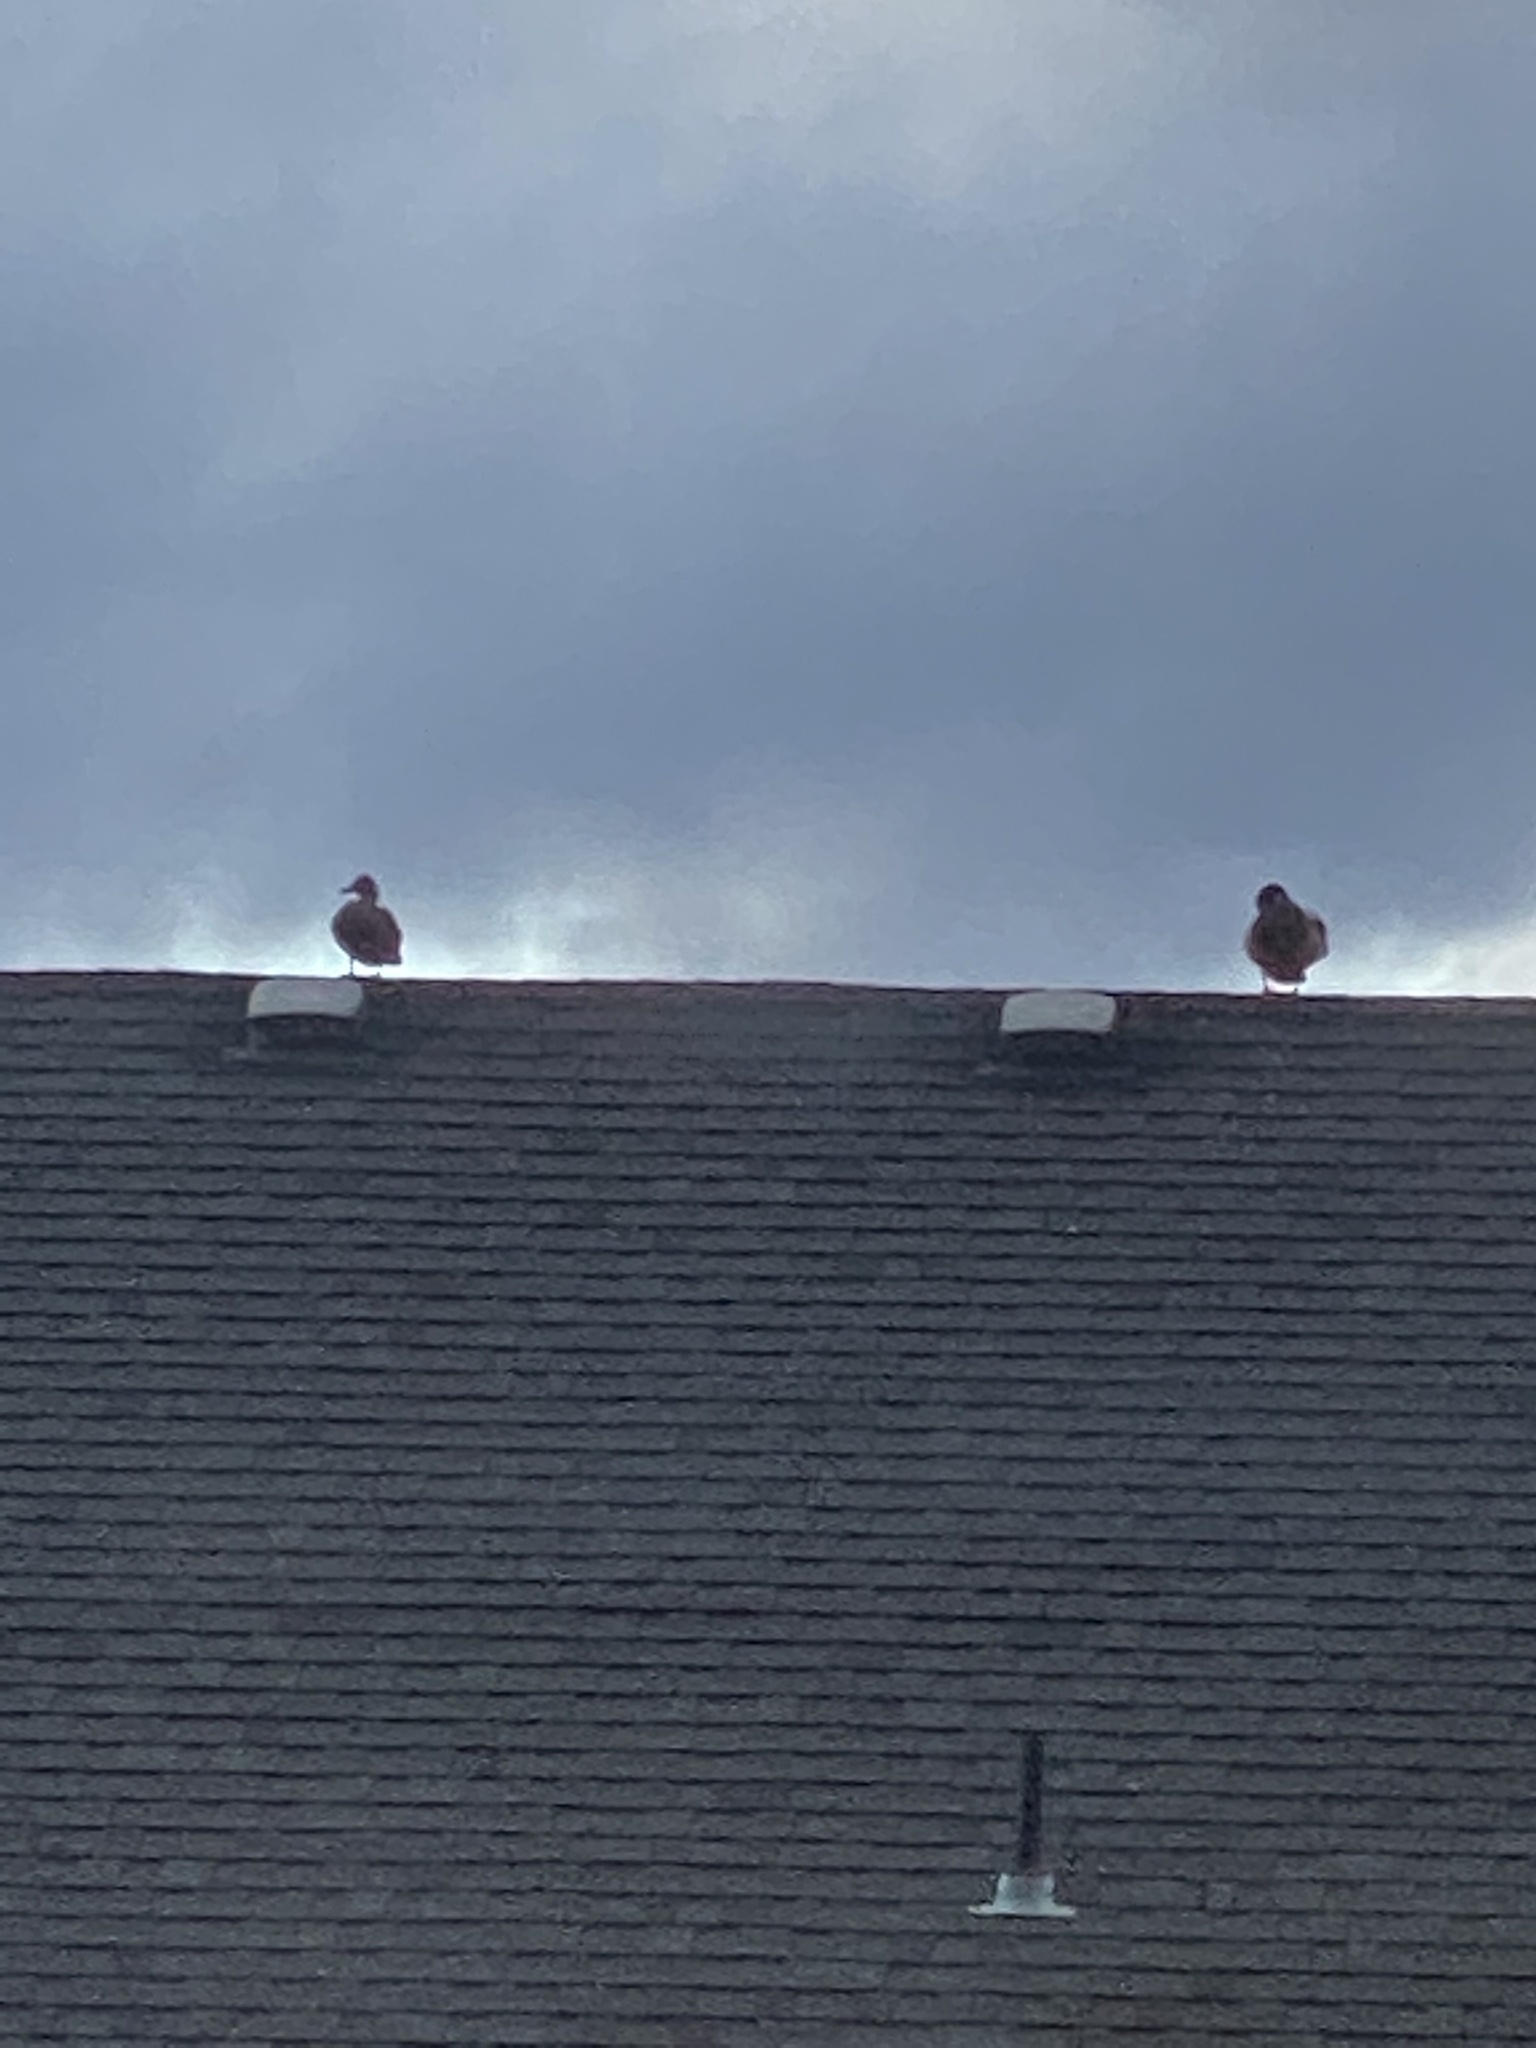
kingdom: Animalia
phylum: Chordata
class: Aves
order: Anseriformes
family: Anatidae
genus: Anas
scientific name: Anas platyrhynchos
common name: Mallard
